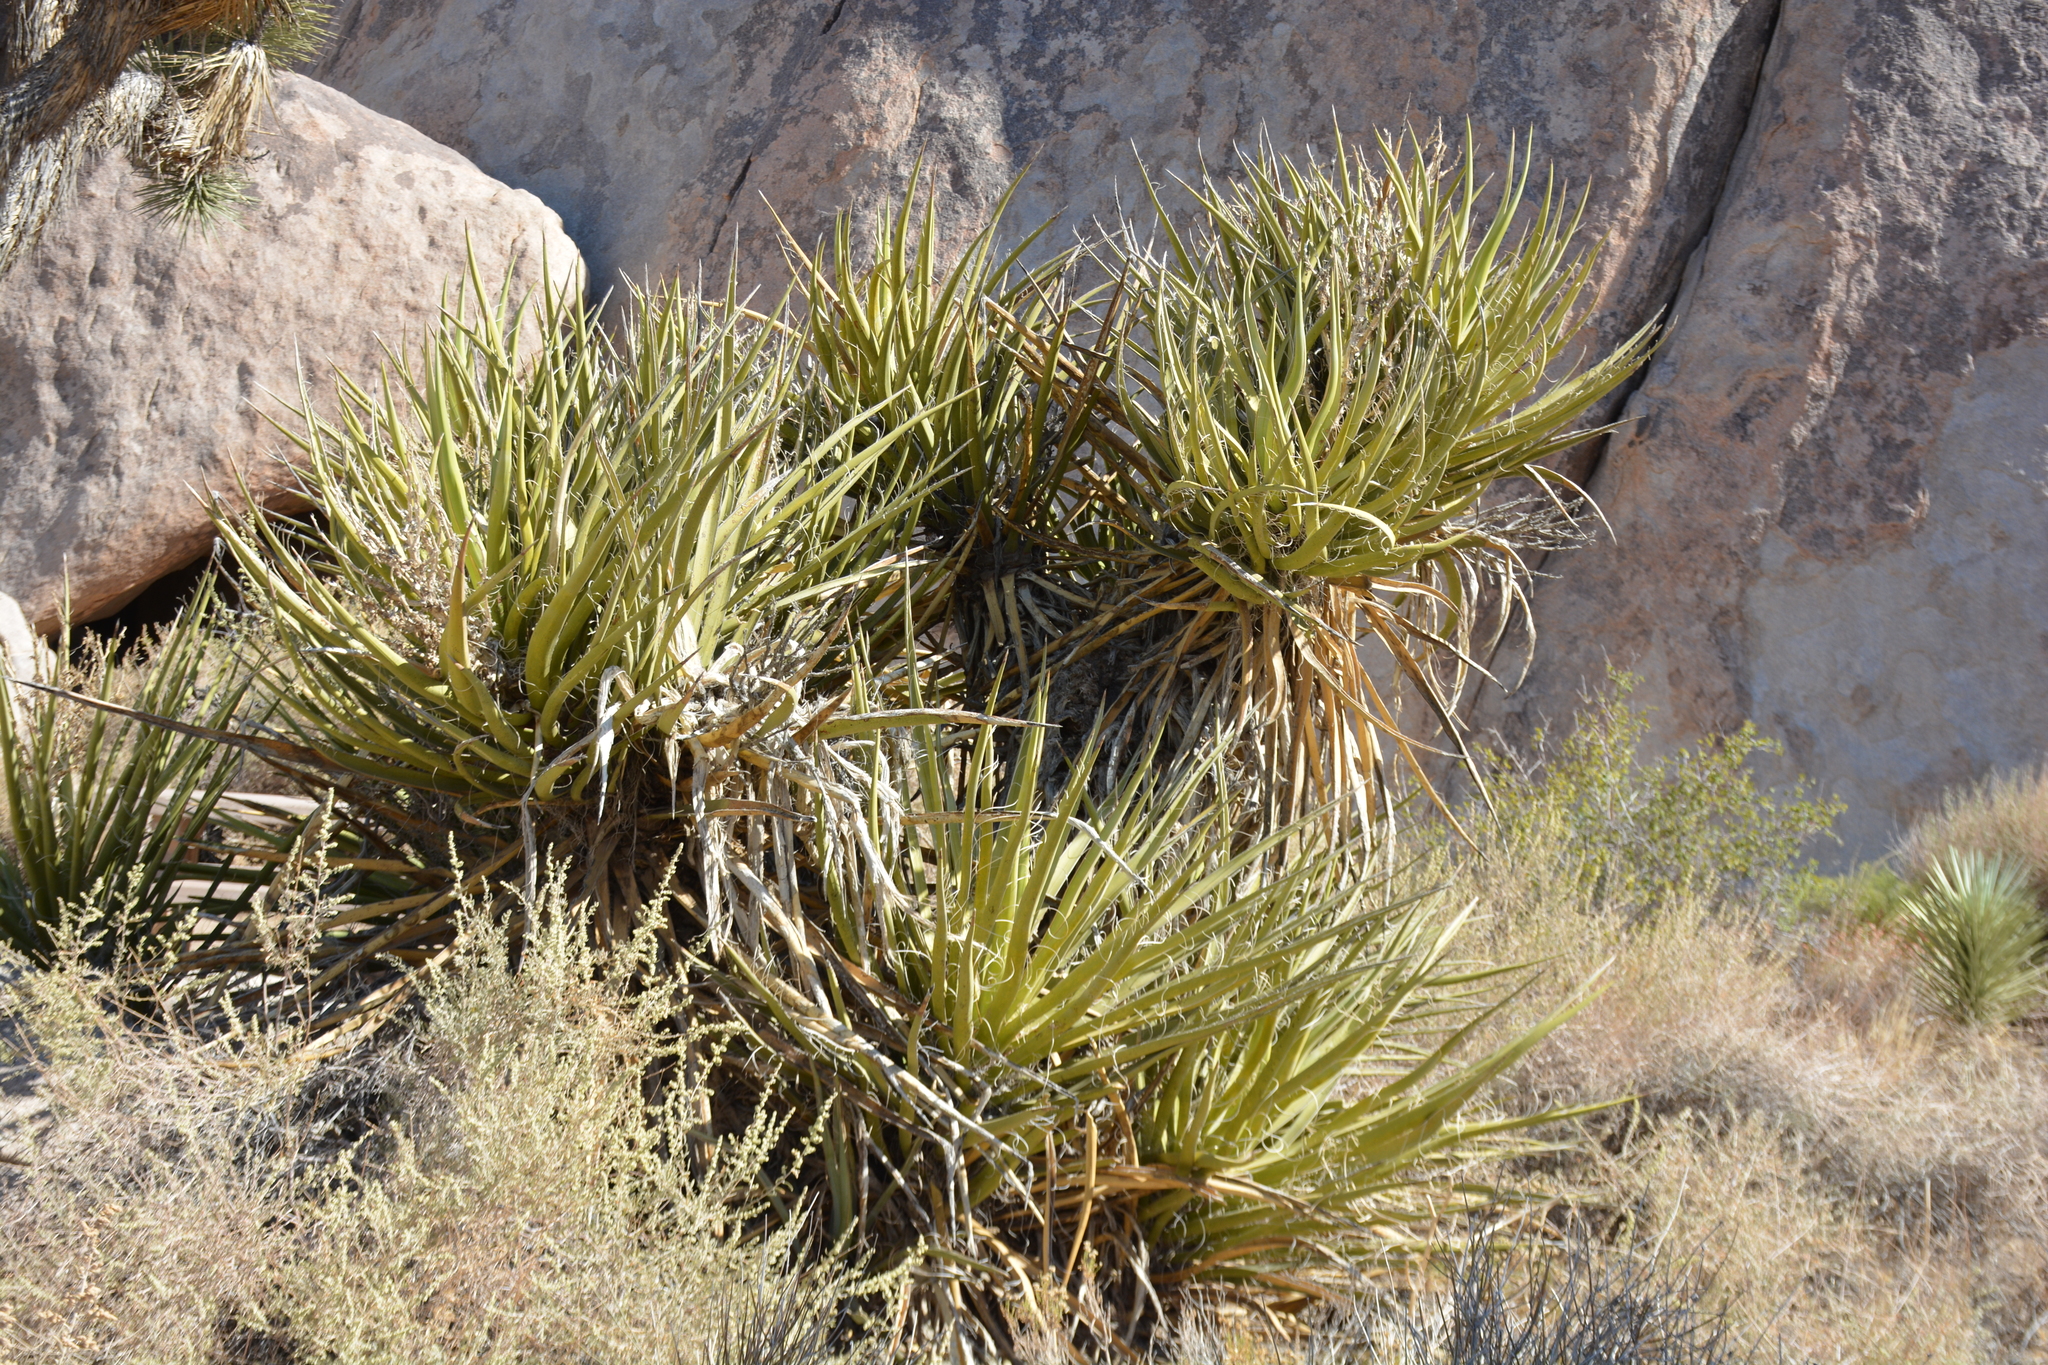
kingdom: Plantae
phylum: Tracheophyta
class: Liliopsida
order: Asparagales
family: Asparagaceae
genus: Yucca
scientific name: Yucca schidigera
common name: Mojave yucca
